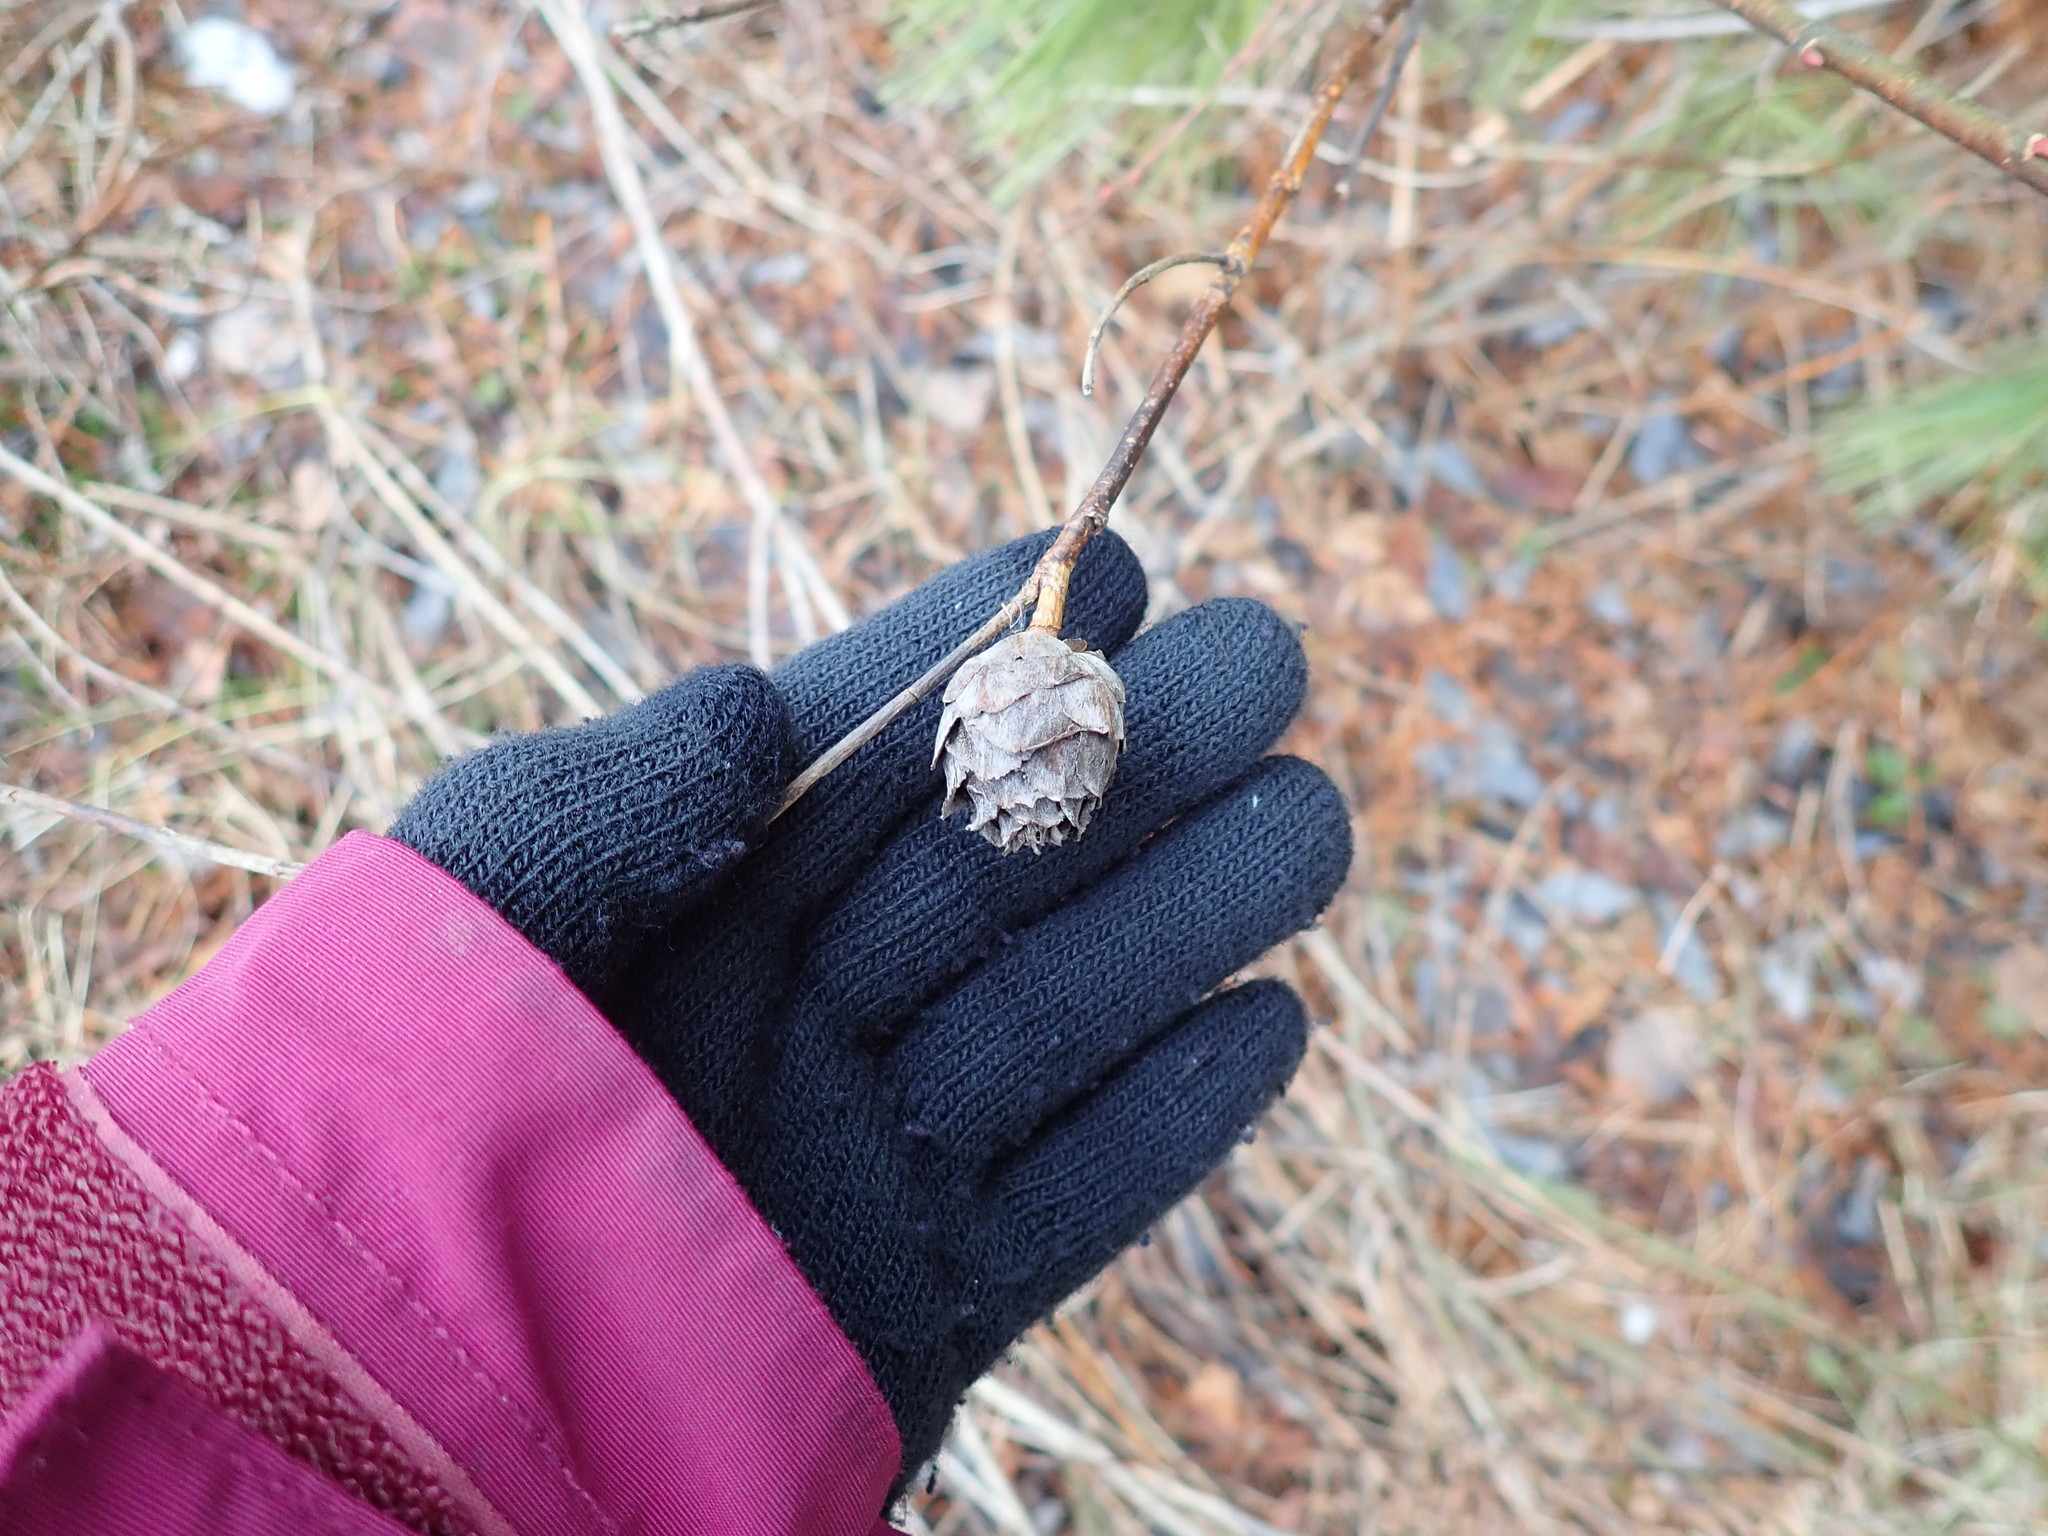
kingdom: Animalia
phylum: Arthropoda
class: Insecta
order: Diptera
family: Cecidomyiidae
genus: Rabdophaga
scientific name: Rabdophaga strobiloides
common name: Willow pinecone gall midge
